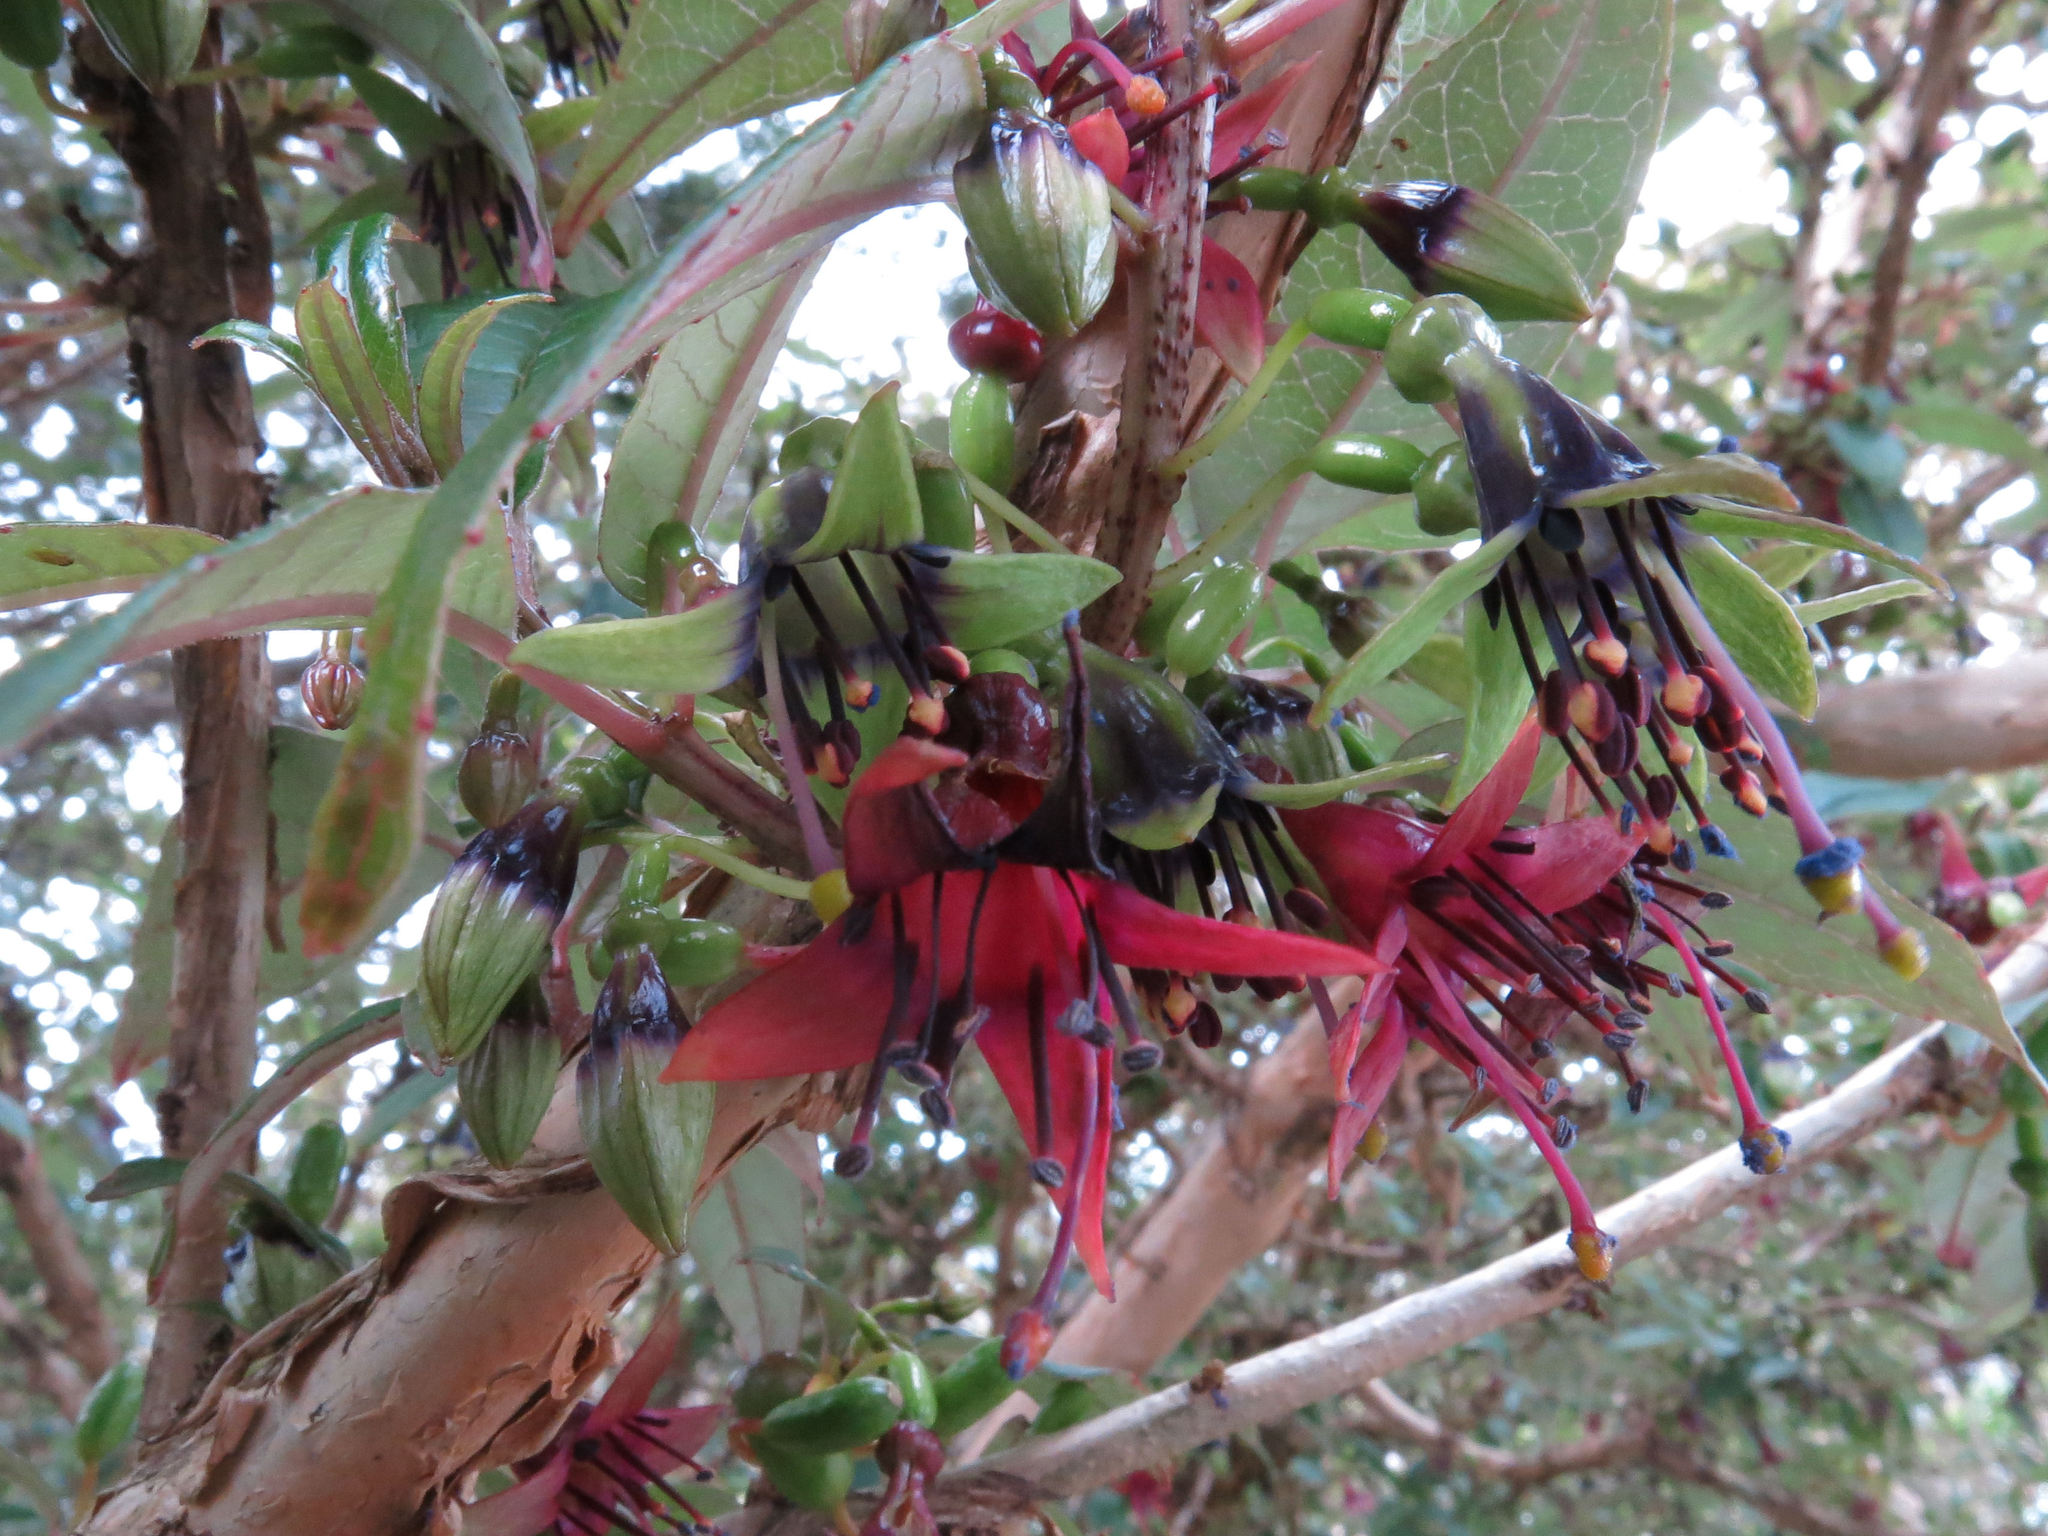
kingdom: Plantae
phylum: Tracheophyta
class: Magnoliopsida
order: Myrtales
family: Onagraceae
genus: Fuchsia
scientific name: Fuchsia excorticata
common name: Tree fuchsia
